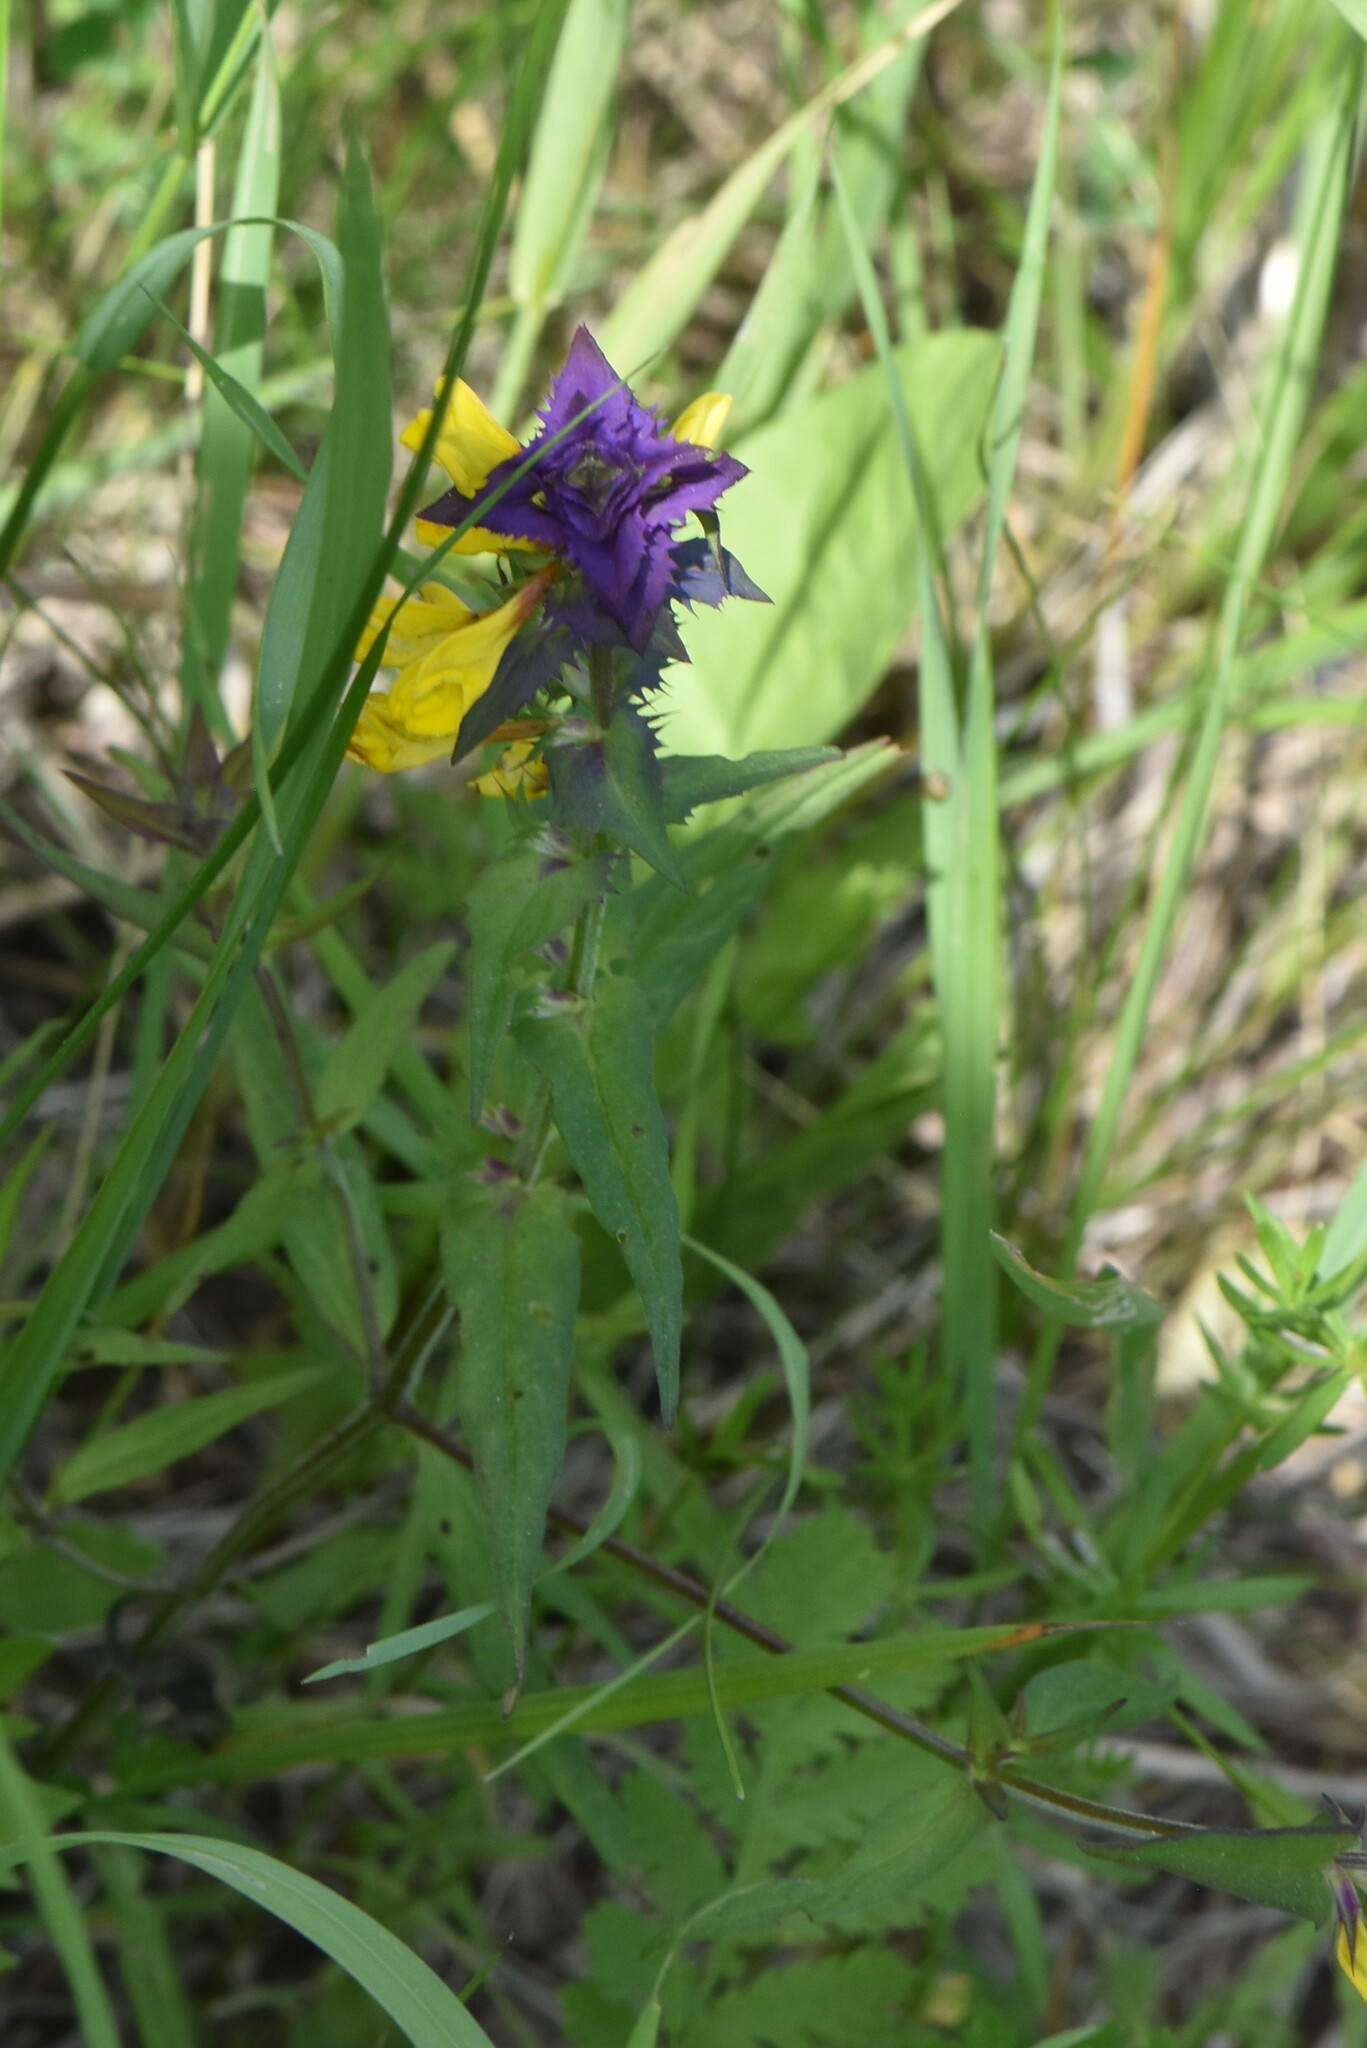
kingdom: Plantae
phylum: Tracheophyta
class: Magnoliopsida
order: Lamiales
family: Orobanchaceae
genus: Melampyrum
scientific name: Melampyrum nemorosum
